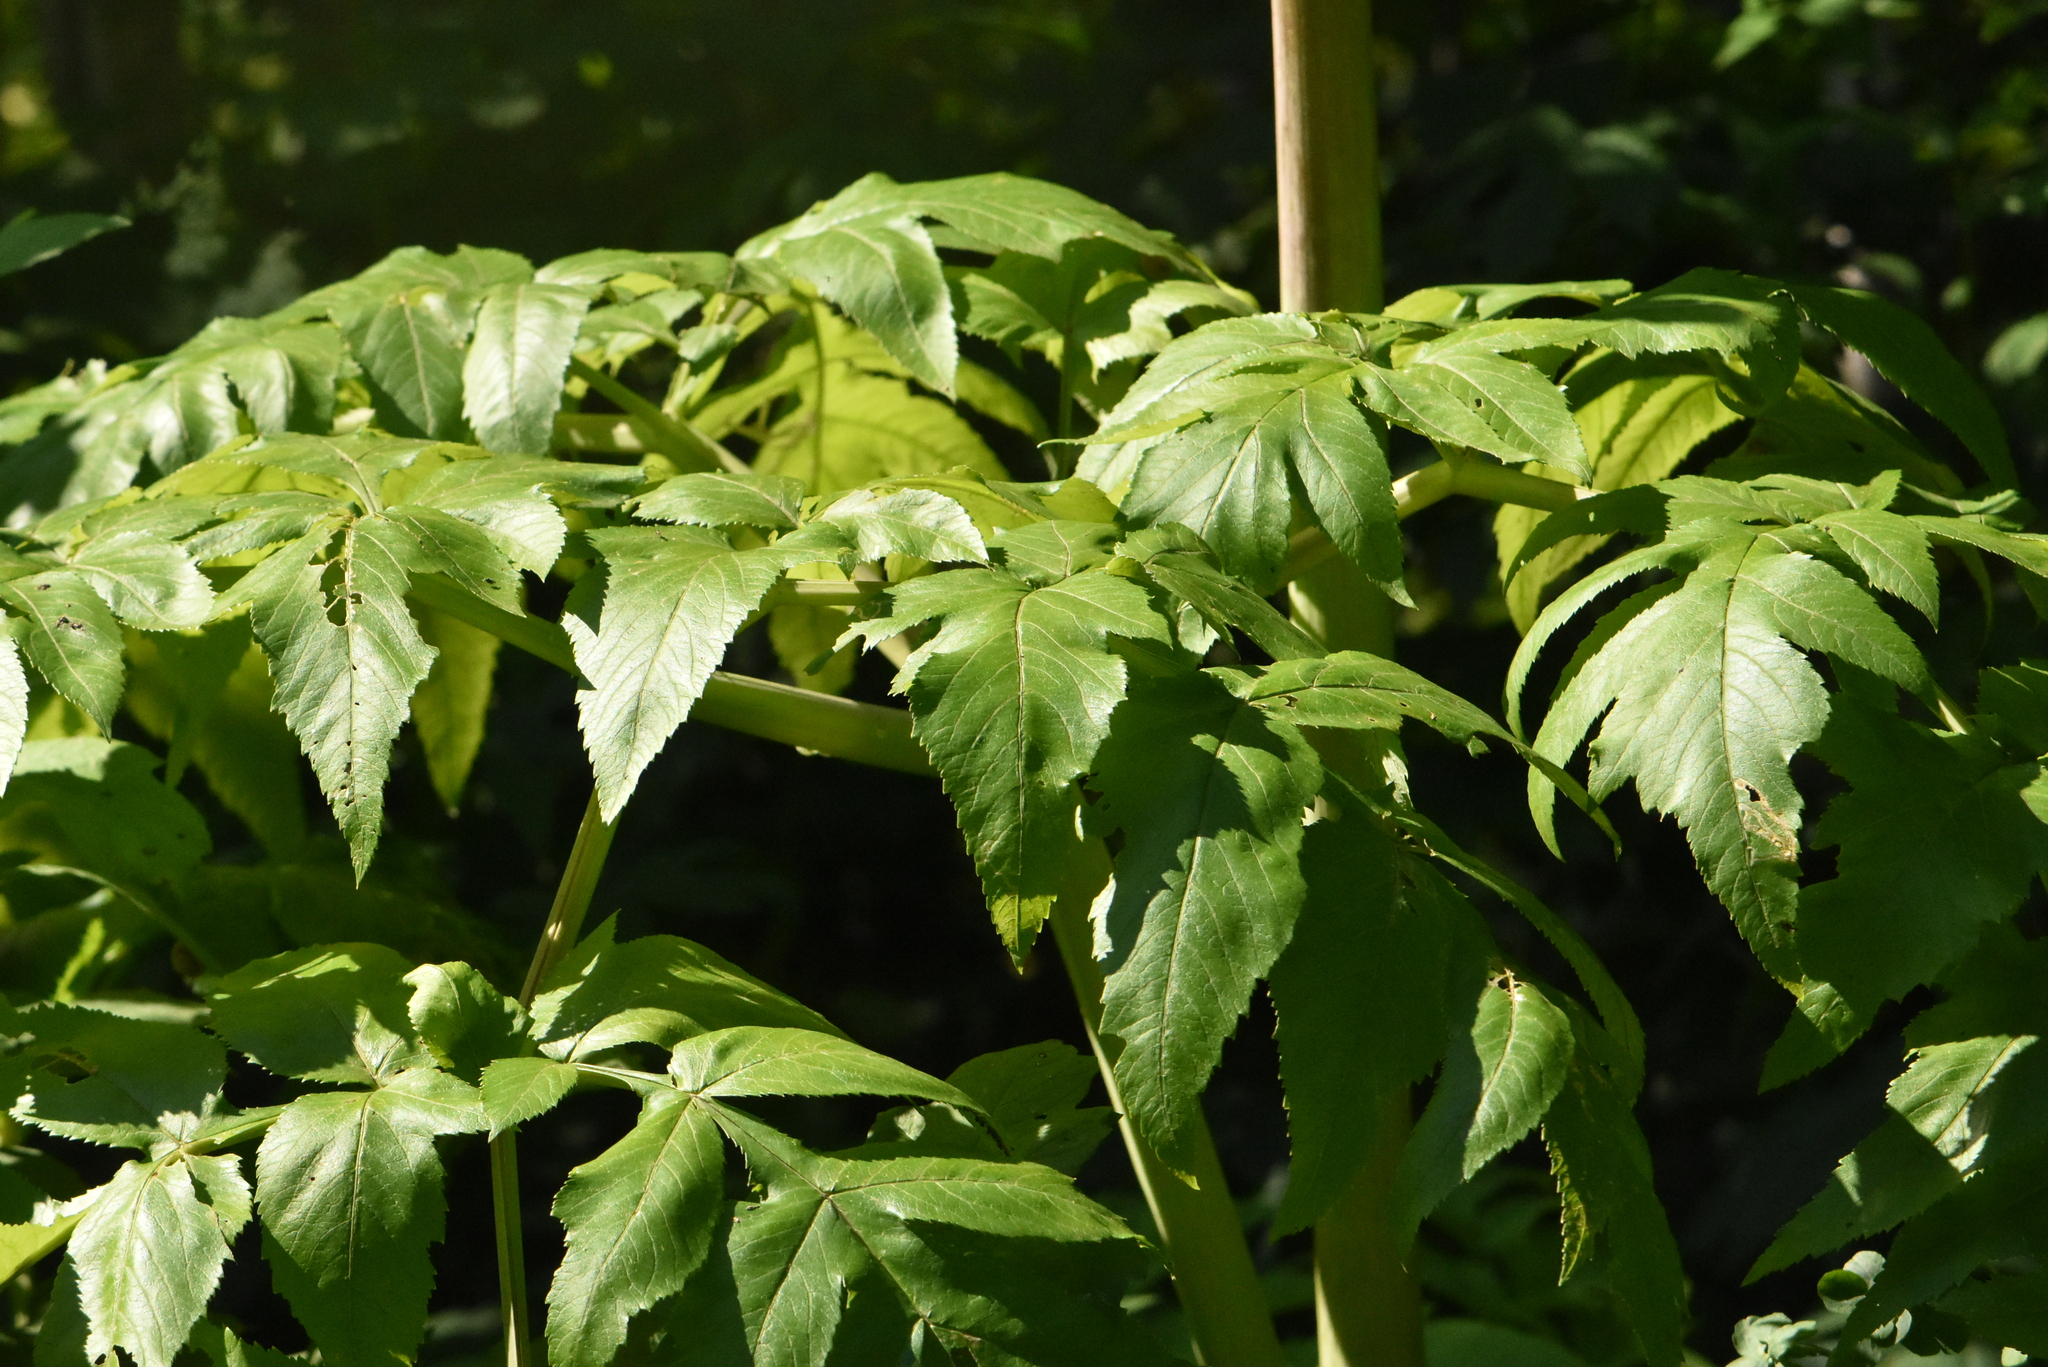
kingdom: Plantae
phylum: Tracheophyta
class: Magnoliopsida
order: Apiales
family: Apiaceae
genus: Angelica
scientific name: Angelica decurrens
